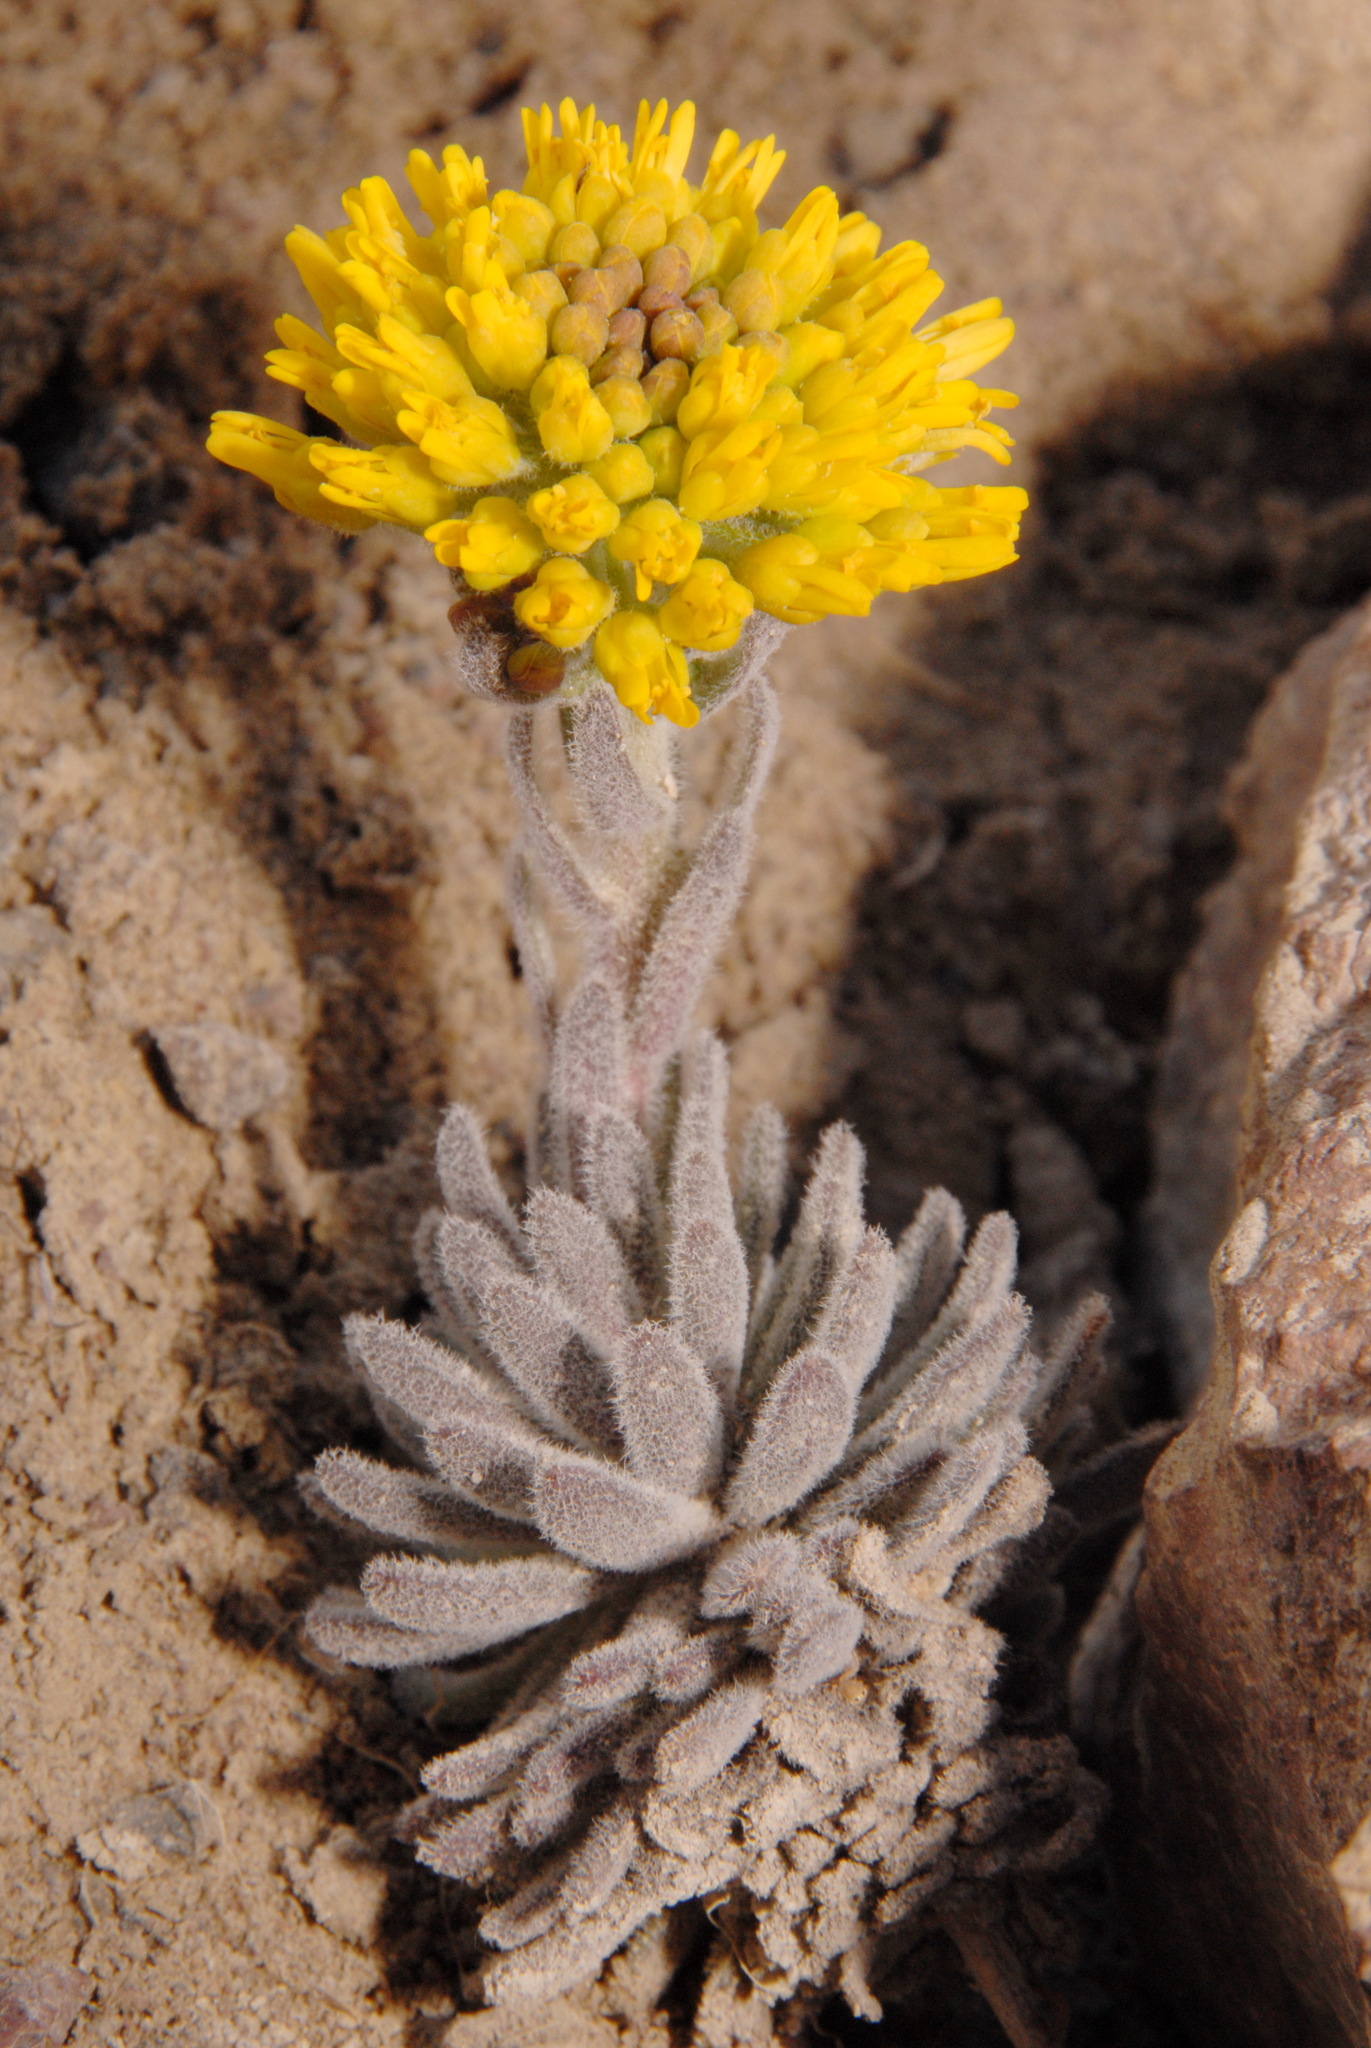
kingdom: Plantae
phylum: Tracheophyta
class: Magnoliopsida
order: Brassicales
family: Brassicaceae
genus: Draba
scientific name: Draba aureola
